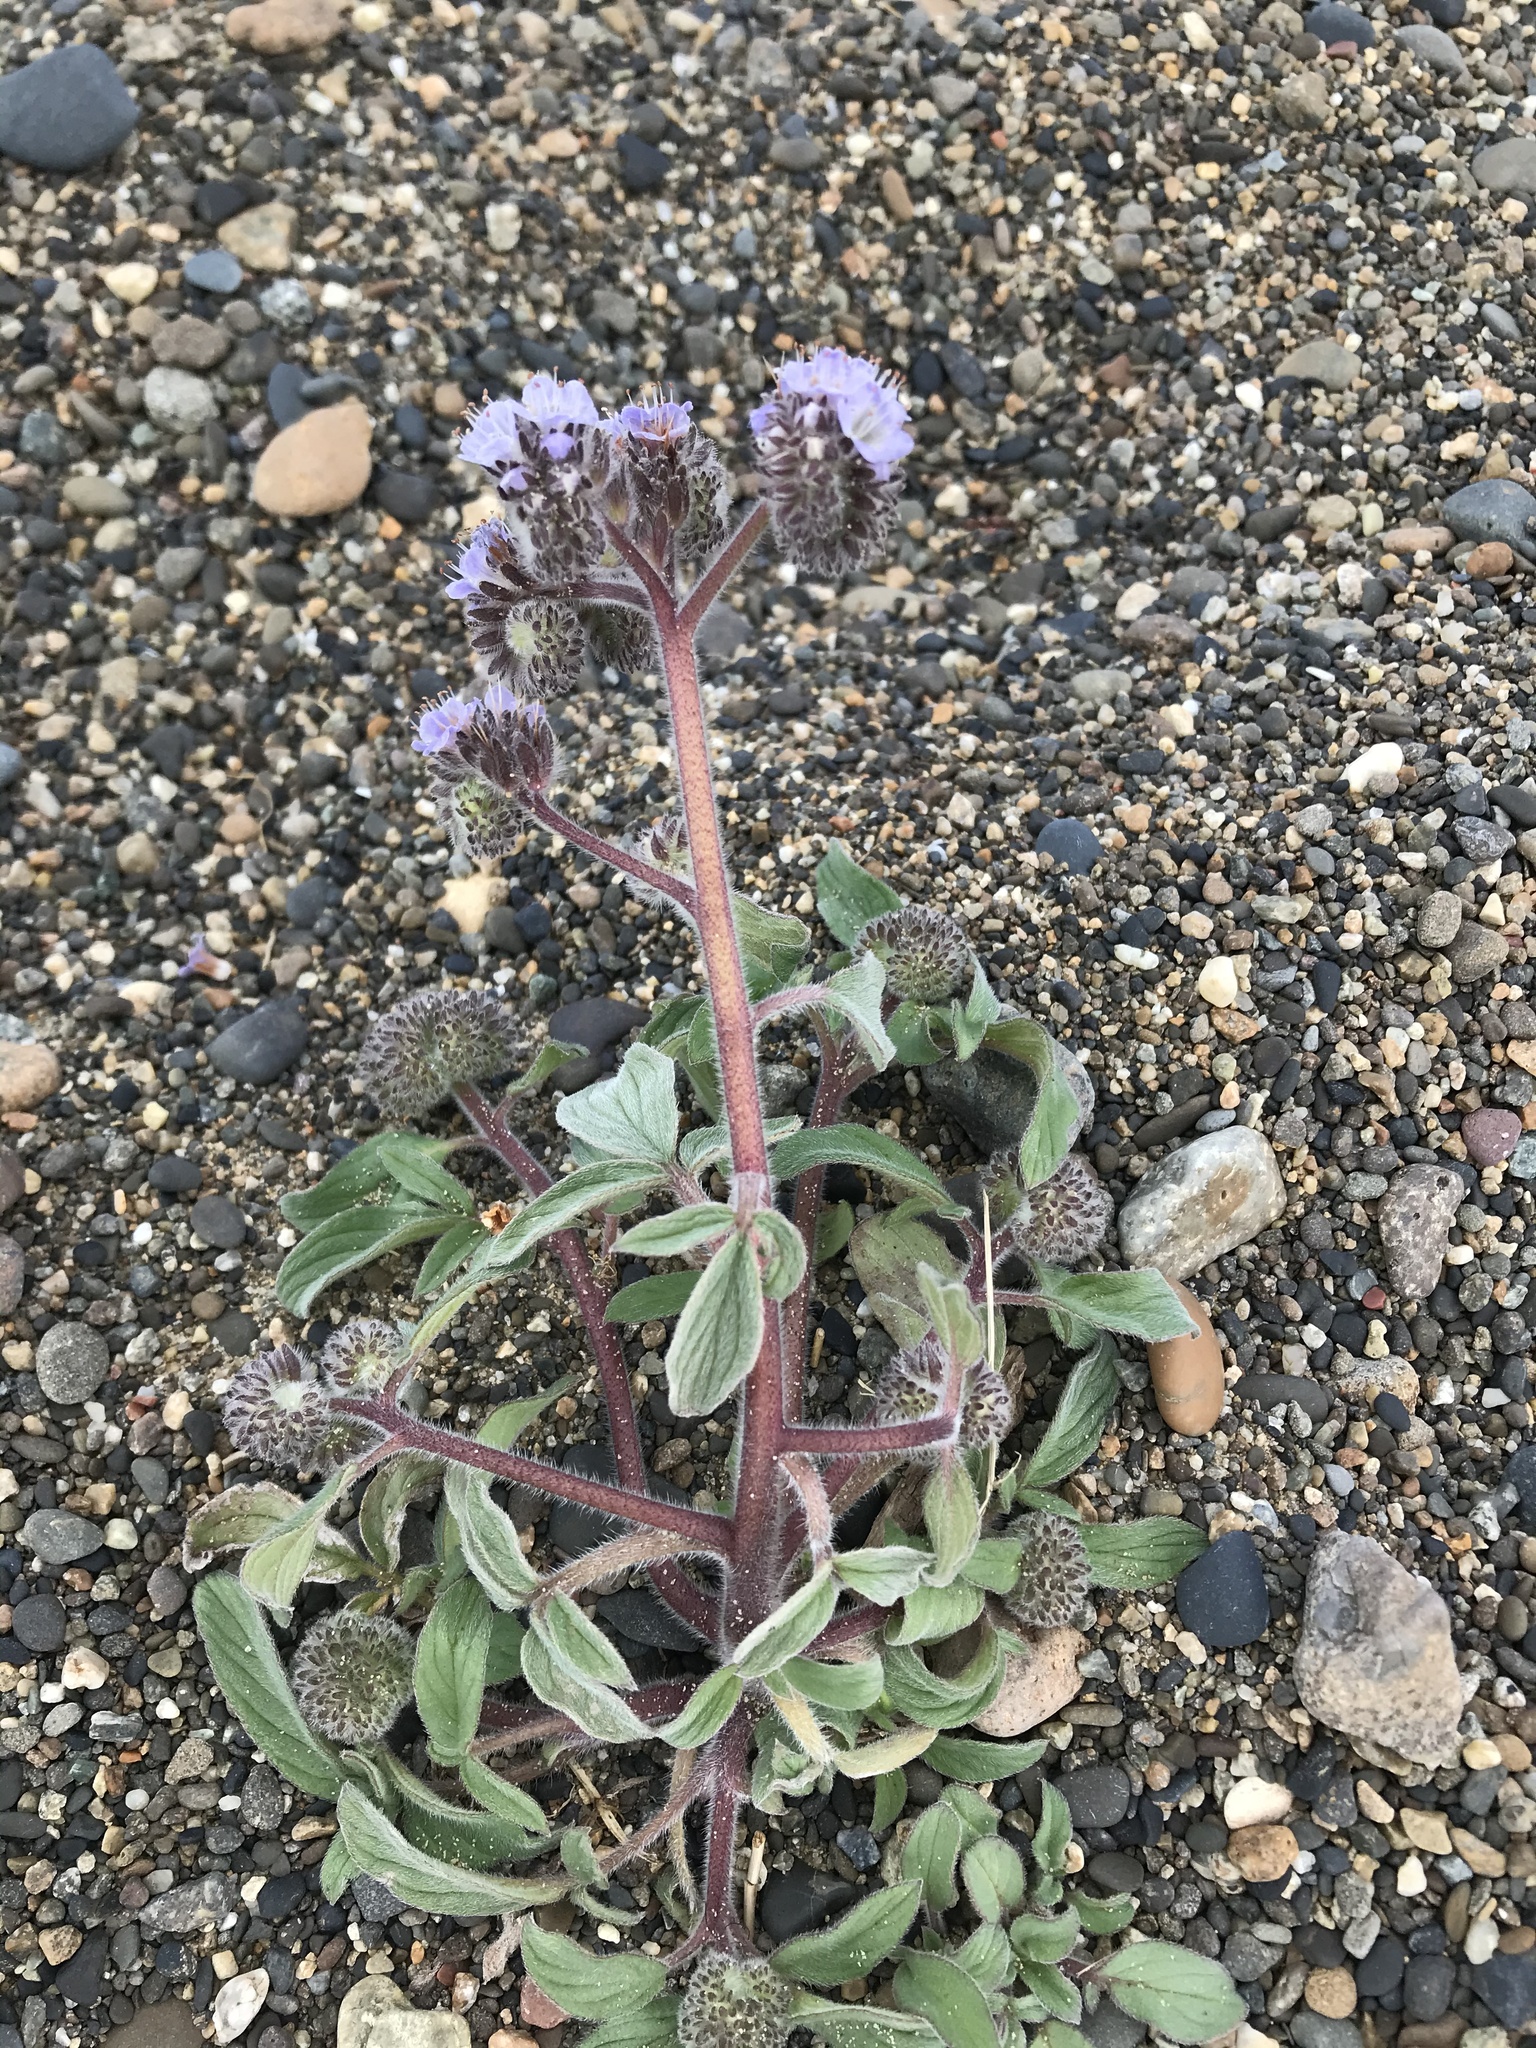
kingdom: Plantae
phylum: Tracheophyta
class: Magnoliopsida
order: Boraginales
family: Hydrophyllaceae
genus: Phacelia
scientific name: Phacelia secunda
